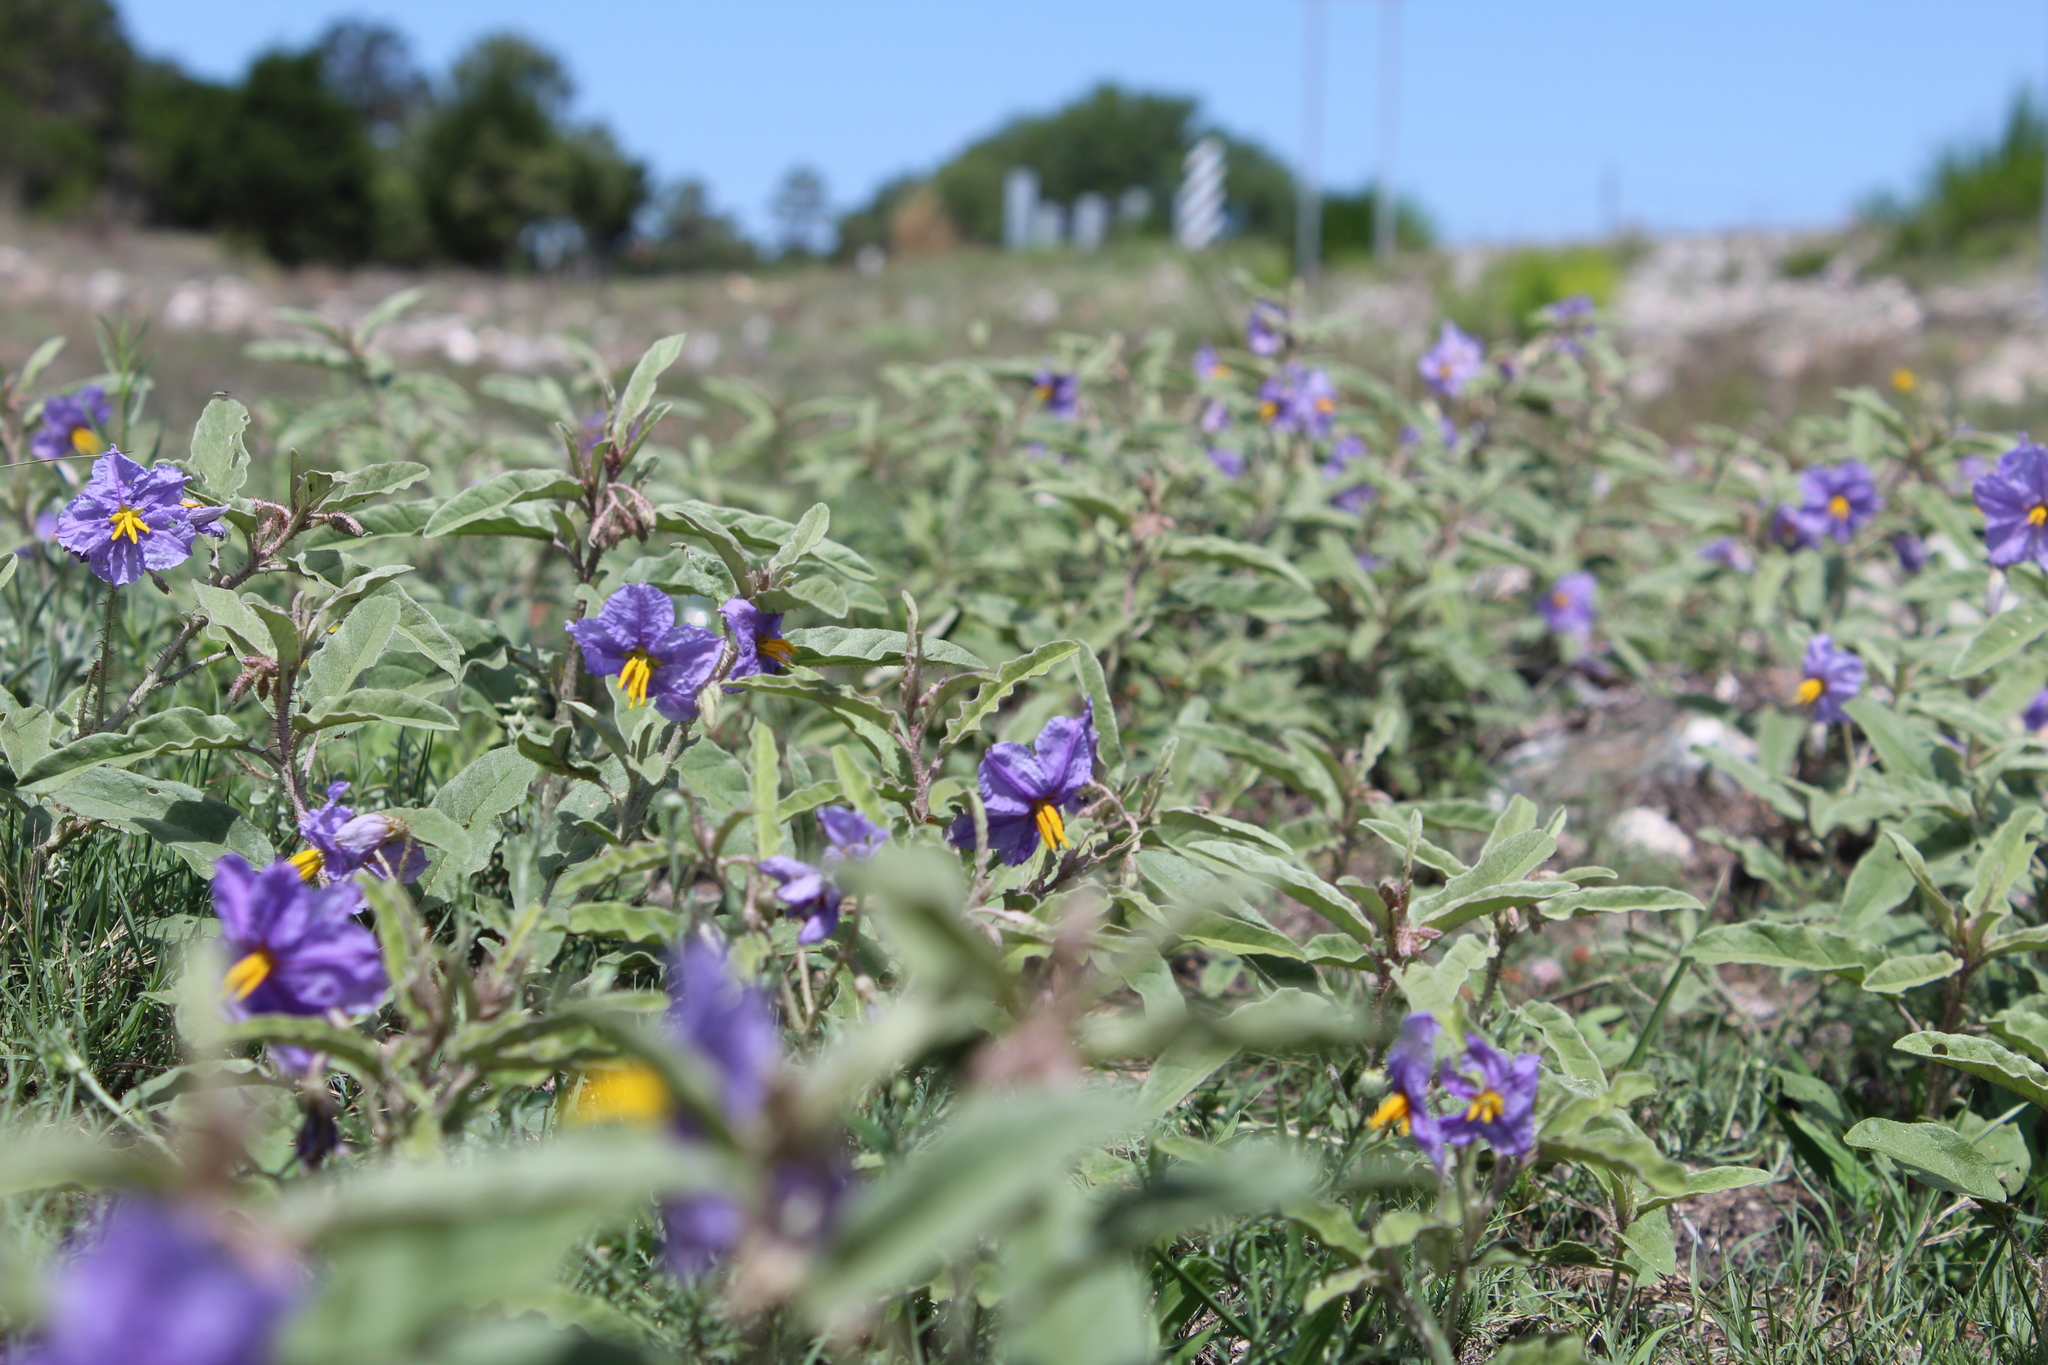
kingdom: Plantae
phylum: Tracheophyta
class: Magnoliopsida
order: Solanales
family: Solanaceae
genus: Solanum
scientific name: Solanum elaeagnifolium
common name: Silverleaf nightshade
